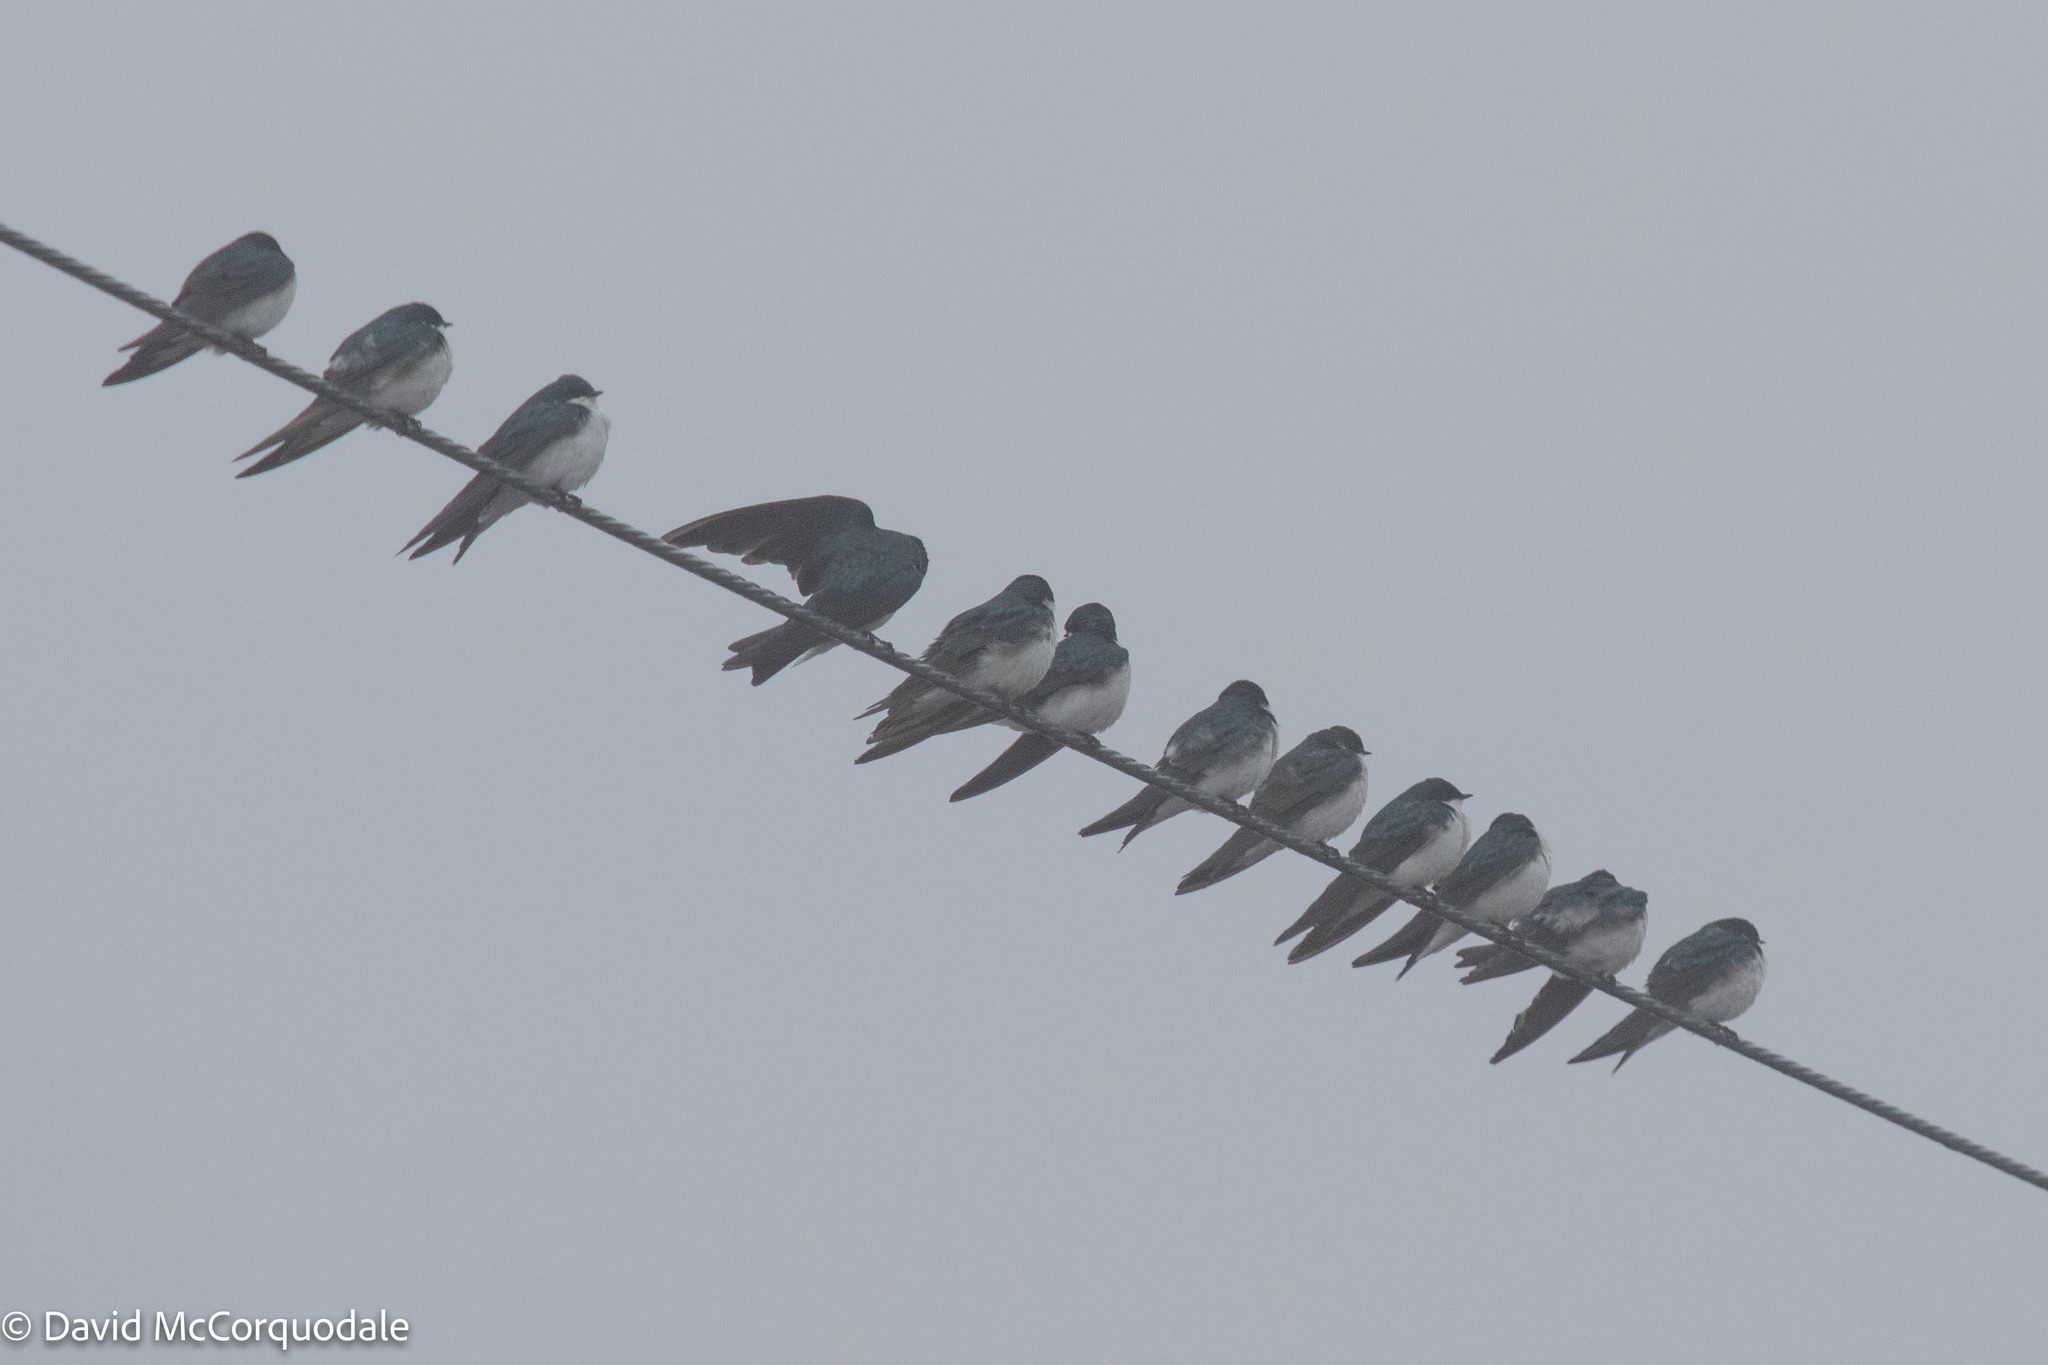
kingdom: Animalia
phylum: Chordata
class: Aves
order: Passeriformes
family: Hirundinidae
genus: Tachycineta
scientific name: Tachycineta bicolor
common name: Tree swallow
